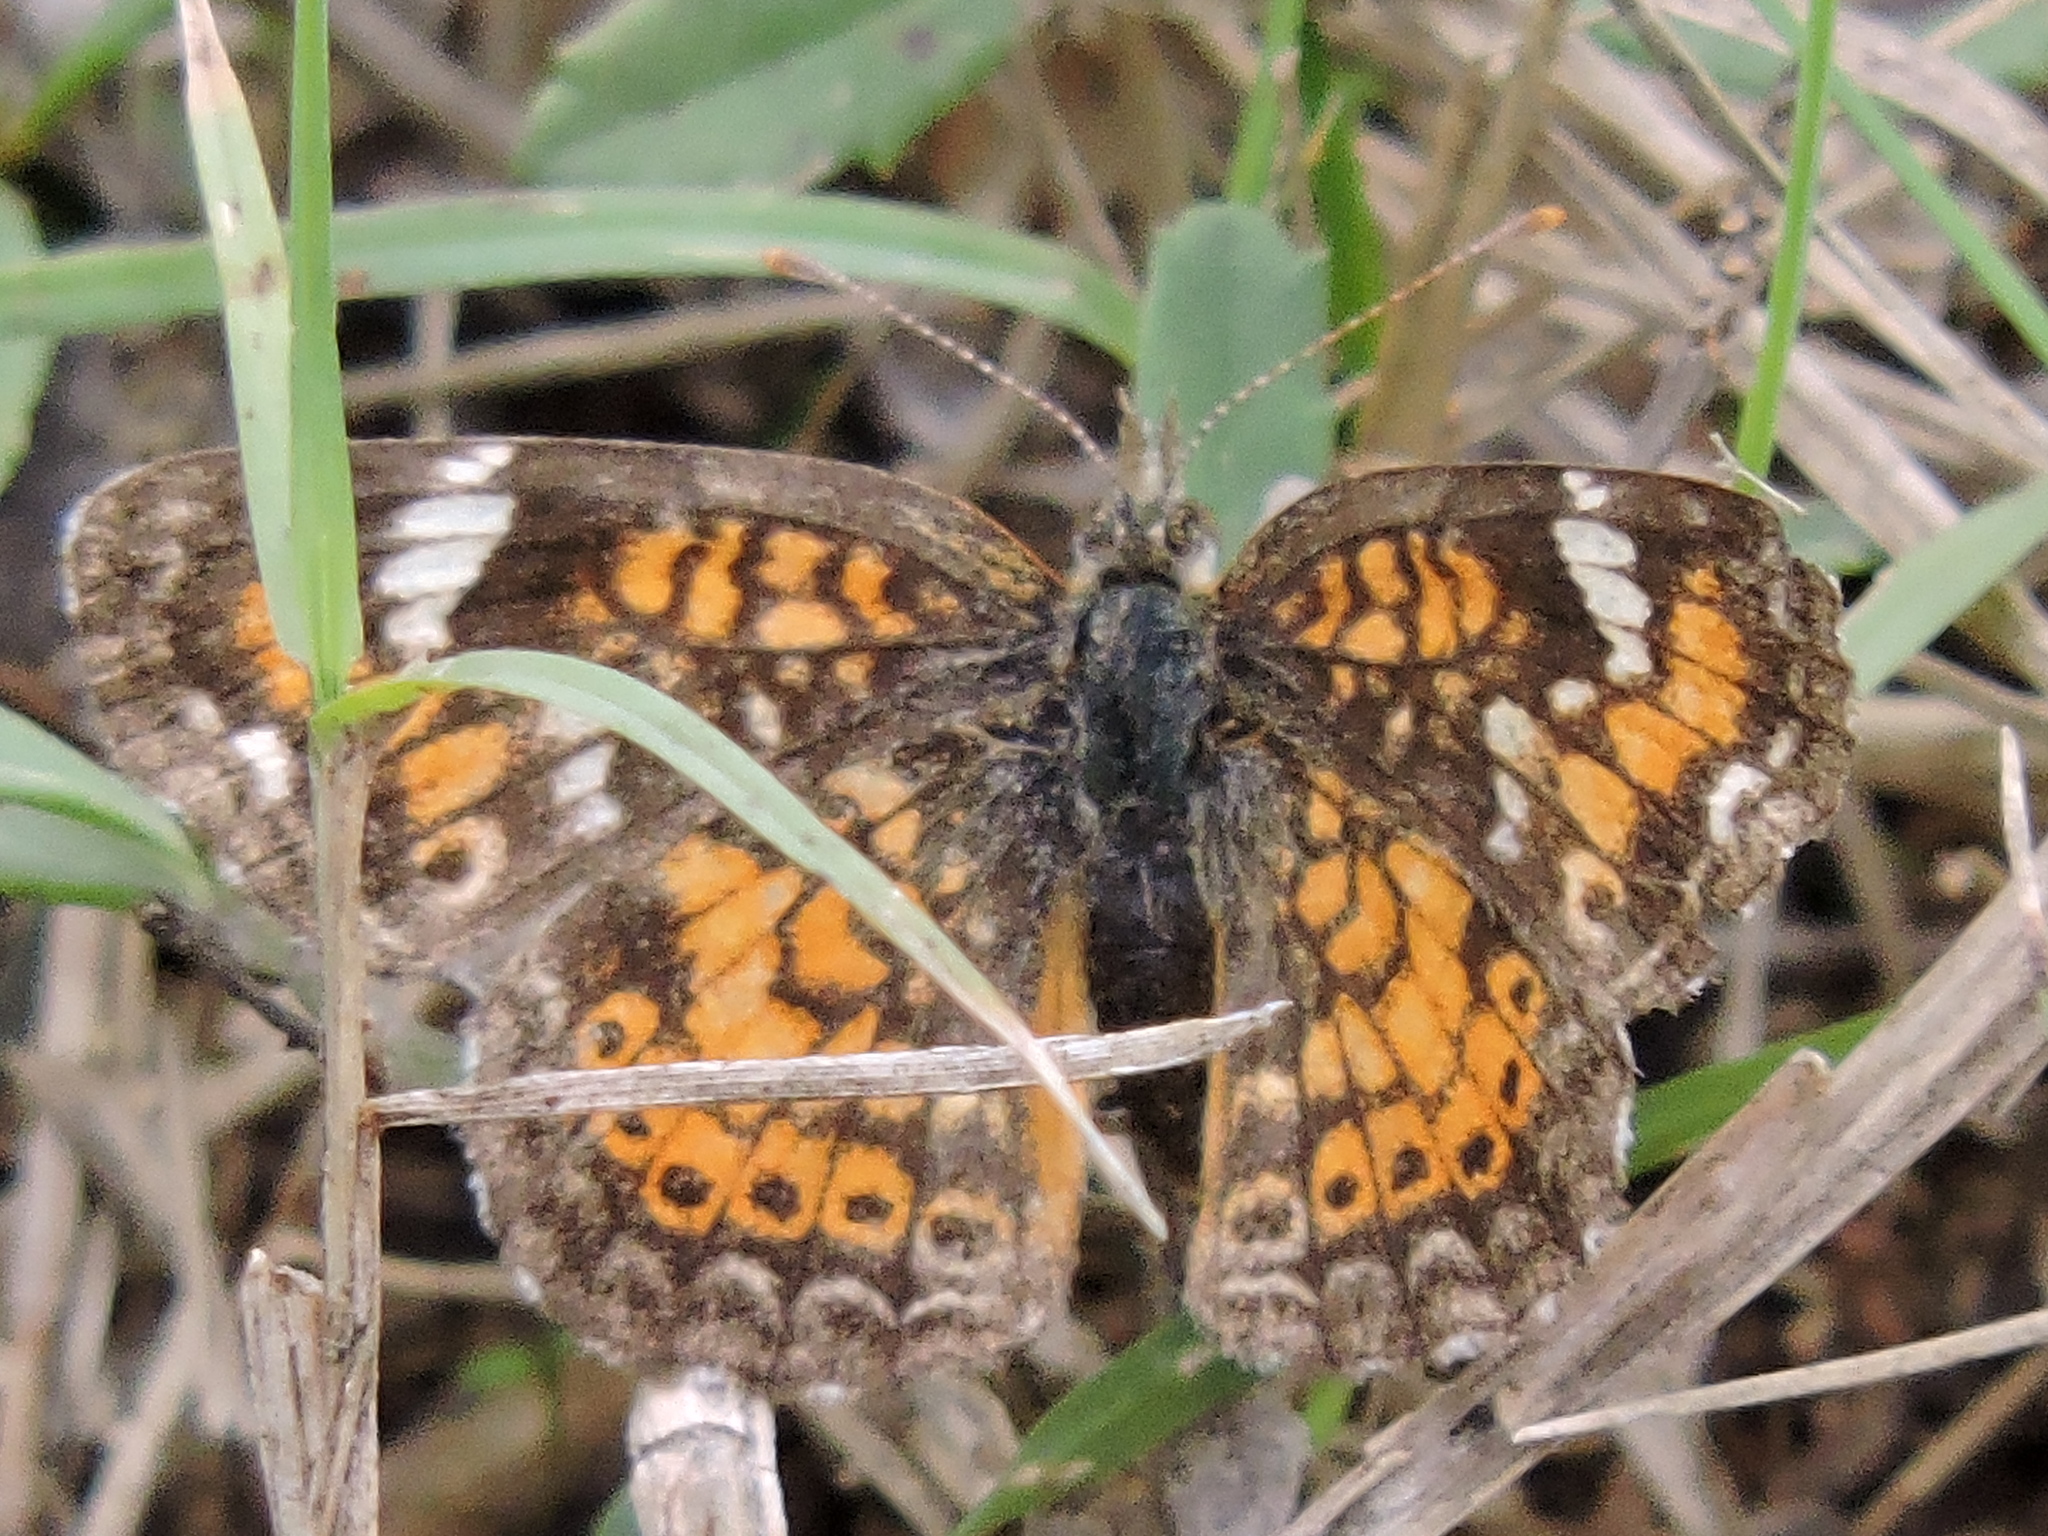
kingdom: Animalia
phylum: Arthropoda
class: Insecta
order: Lepidoptera
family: Nymphalidae
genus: Phyciodes
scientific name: Phyciodes phaon
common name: Phaon crescent
